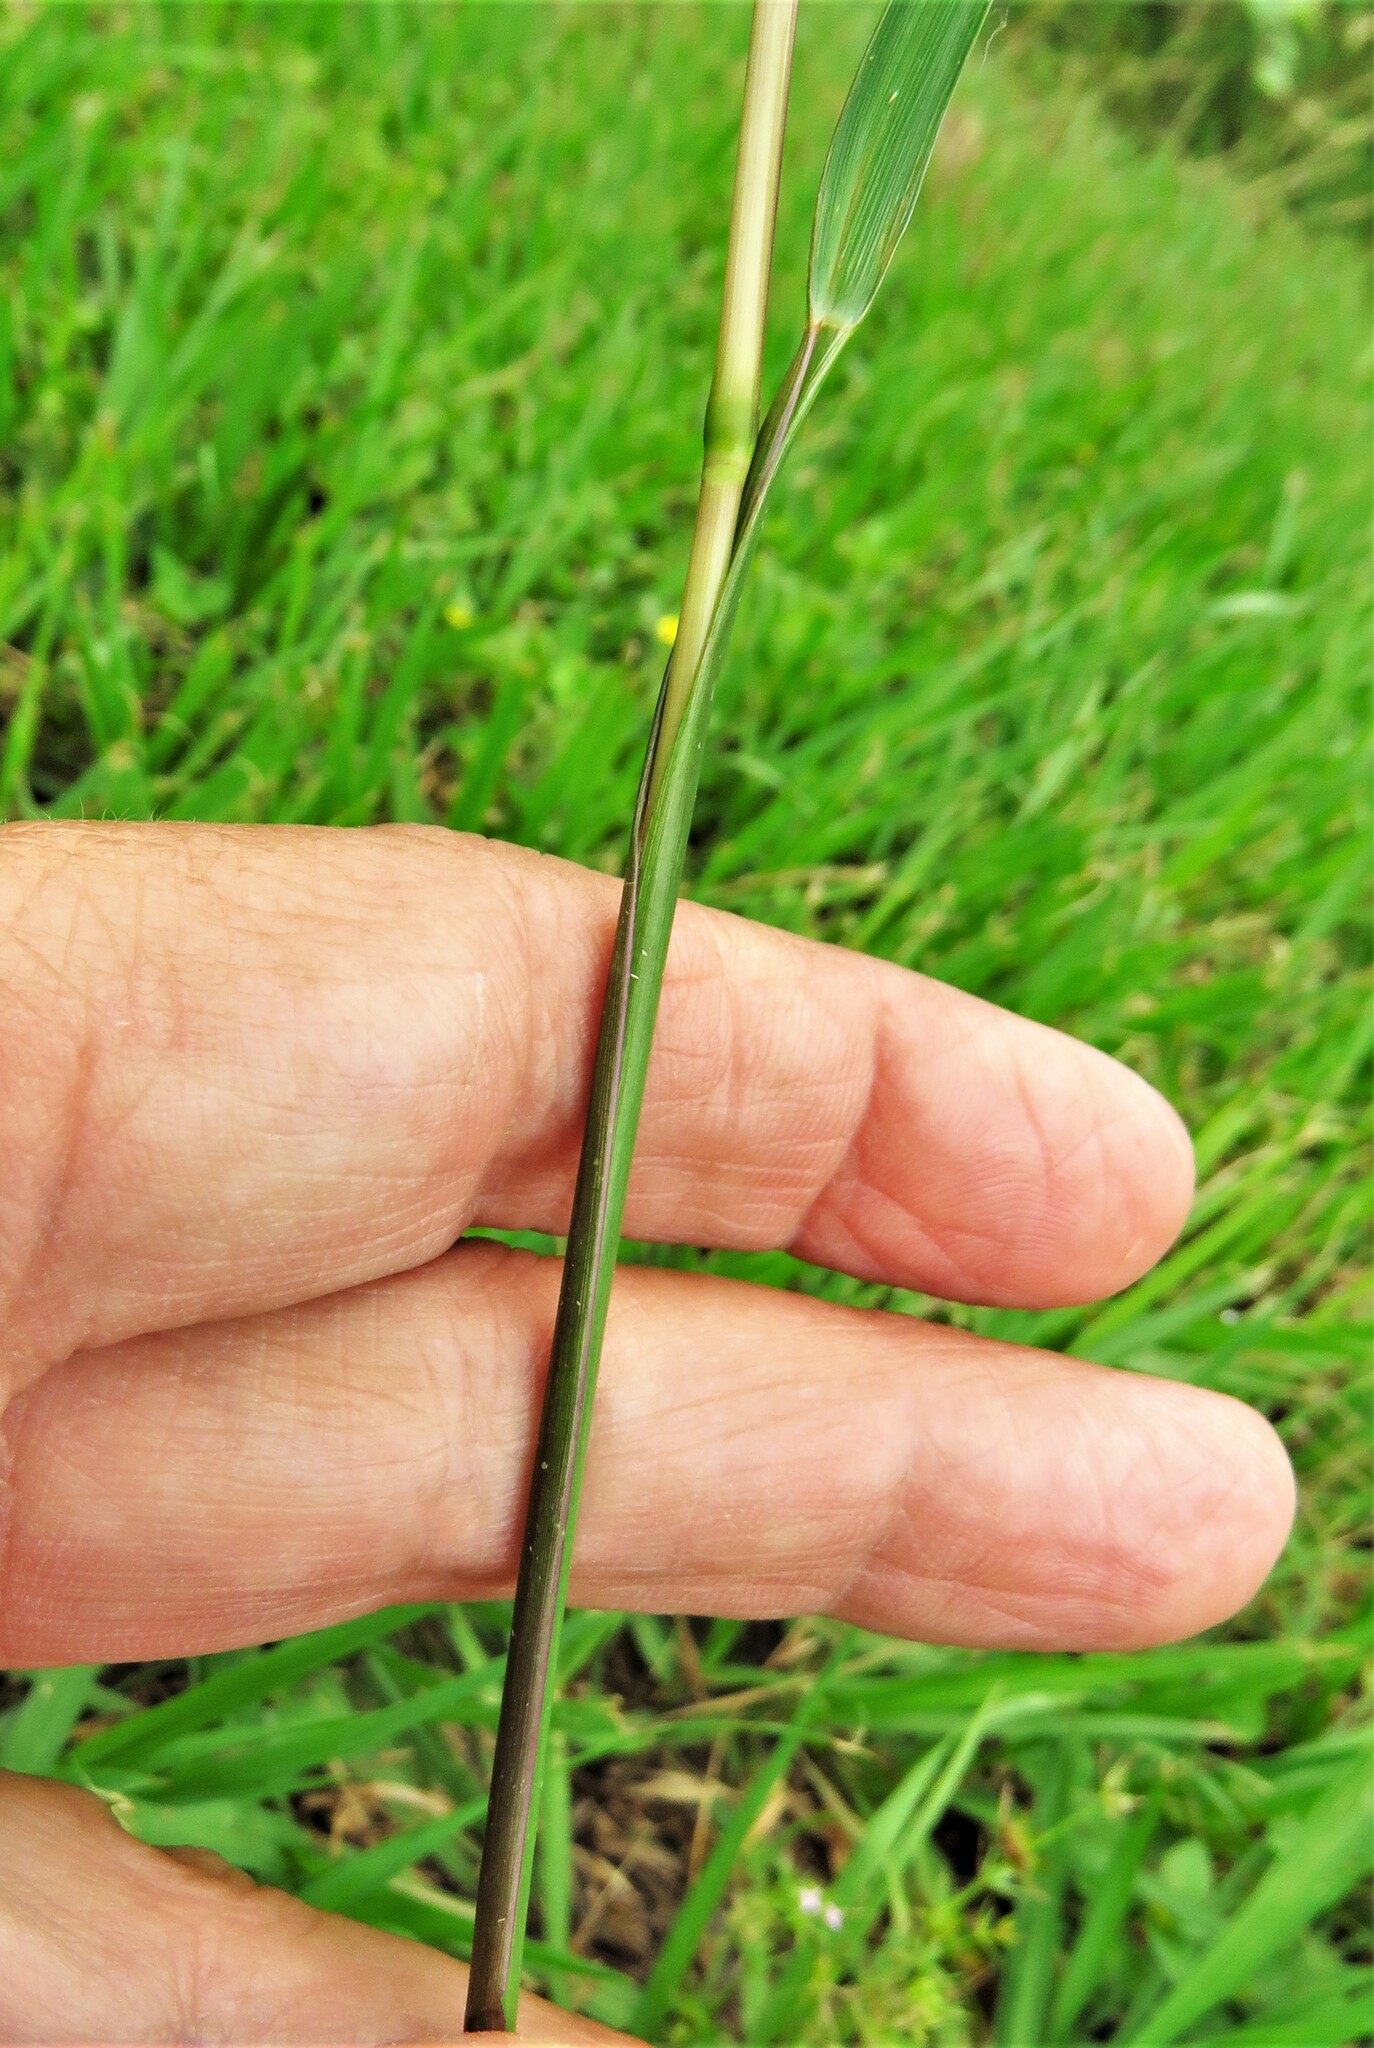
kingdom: Plantae
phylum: Tracheophyta
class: Liliopsida
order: Poales
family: Poaceae
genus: Paspalum
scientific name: Paspalum notatum
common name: Bahiagrass
